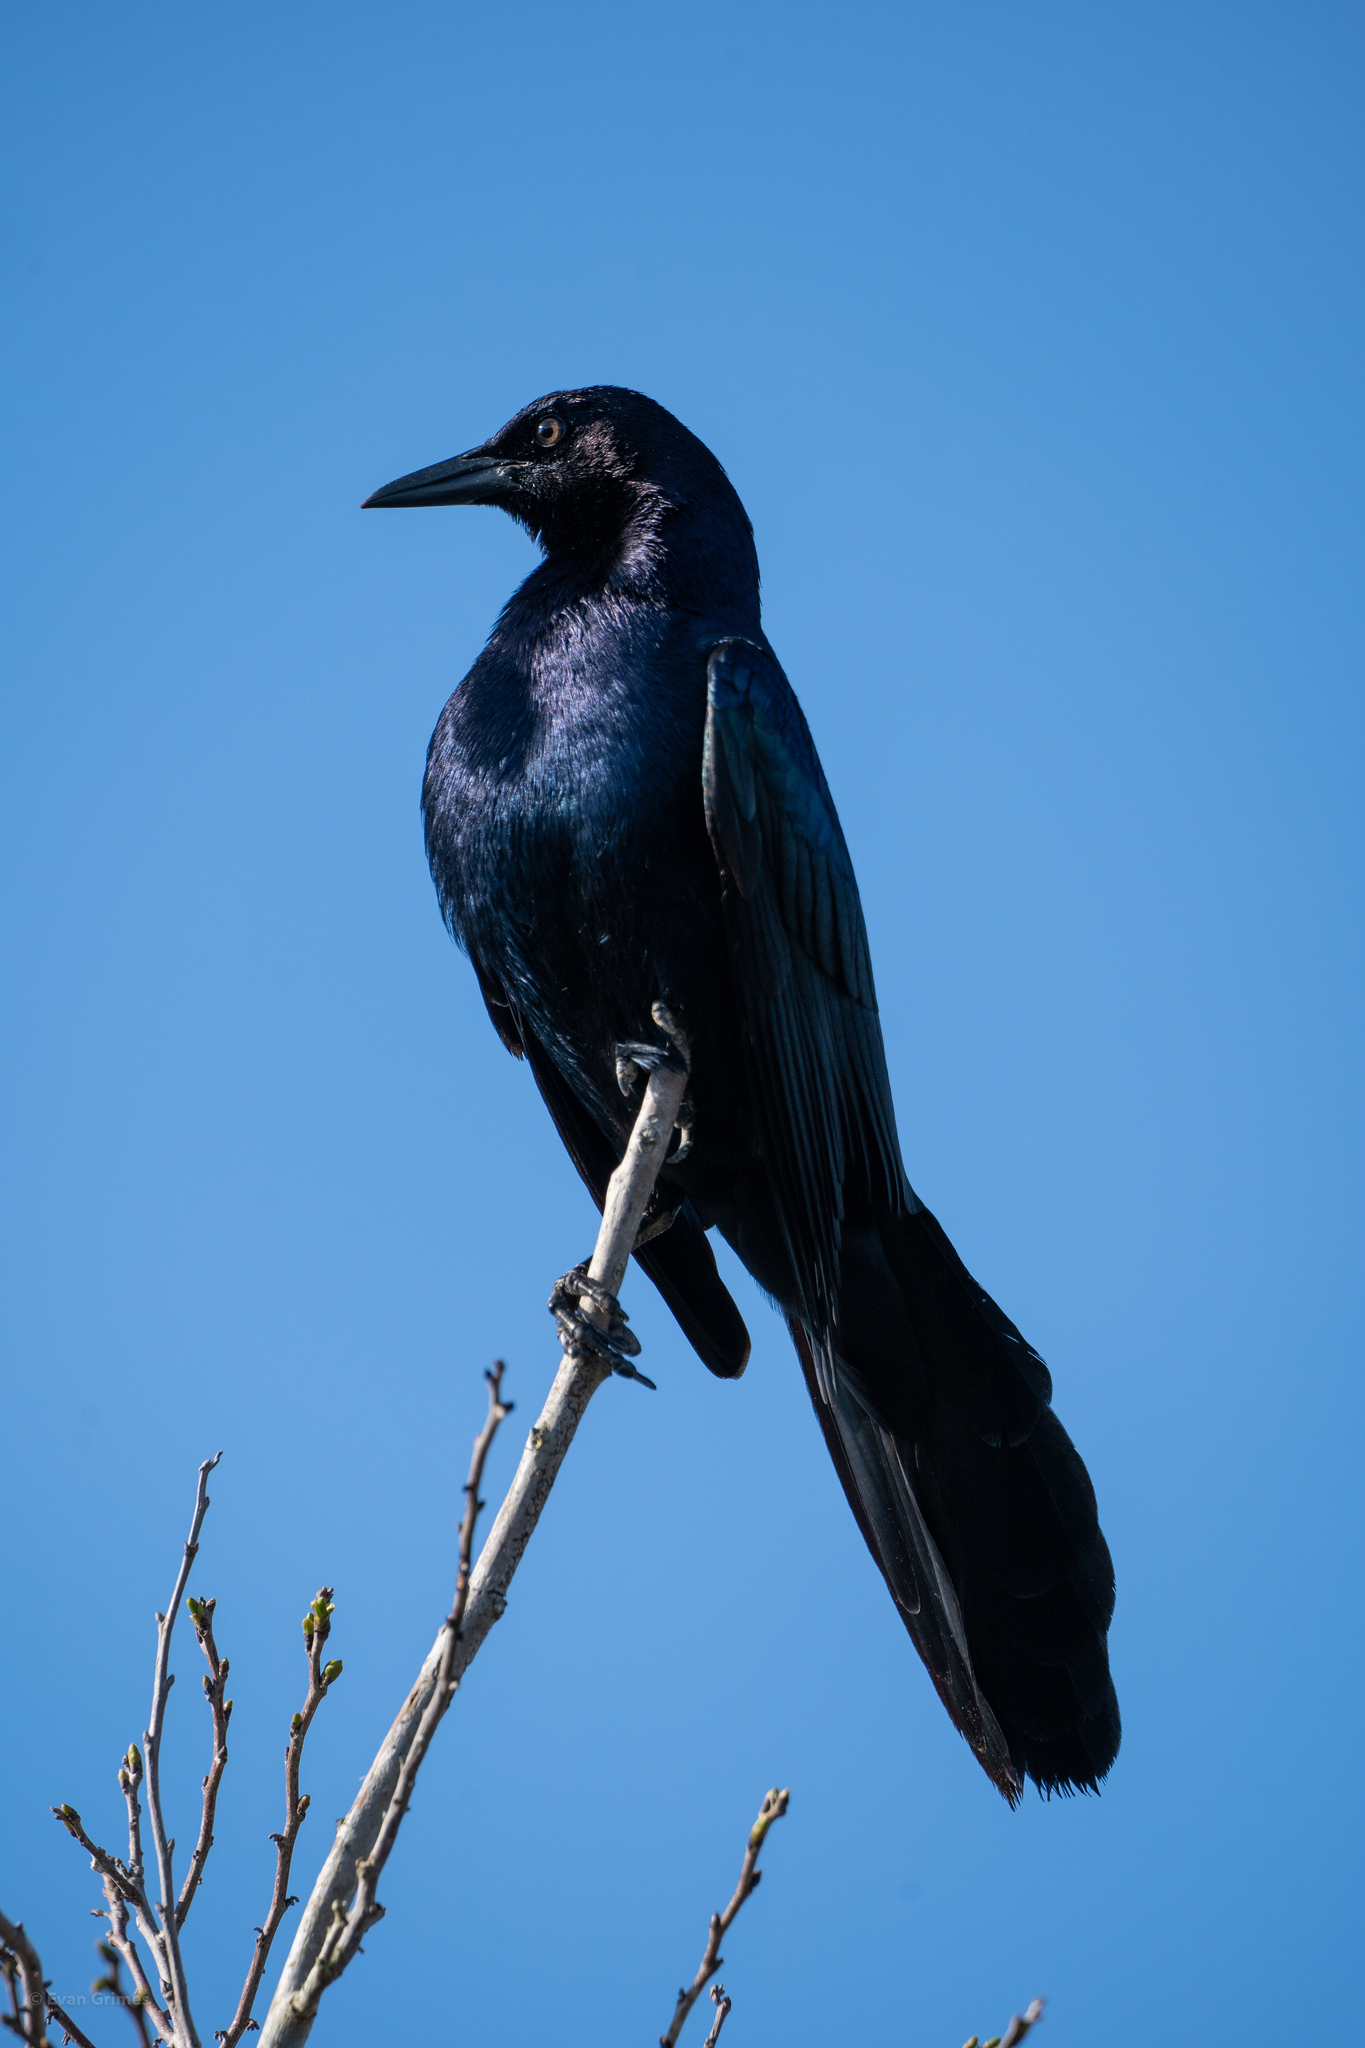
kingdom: Animalia
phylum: Chordata
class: Aves
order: Passeriformes
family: Icteridae
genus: Quiscalus
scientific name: Quiscalus major
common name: Boat-tailed grackle
